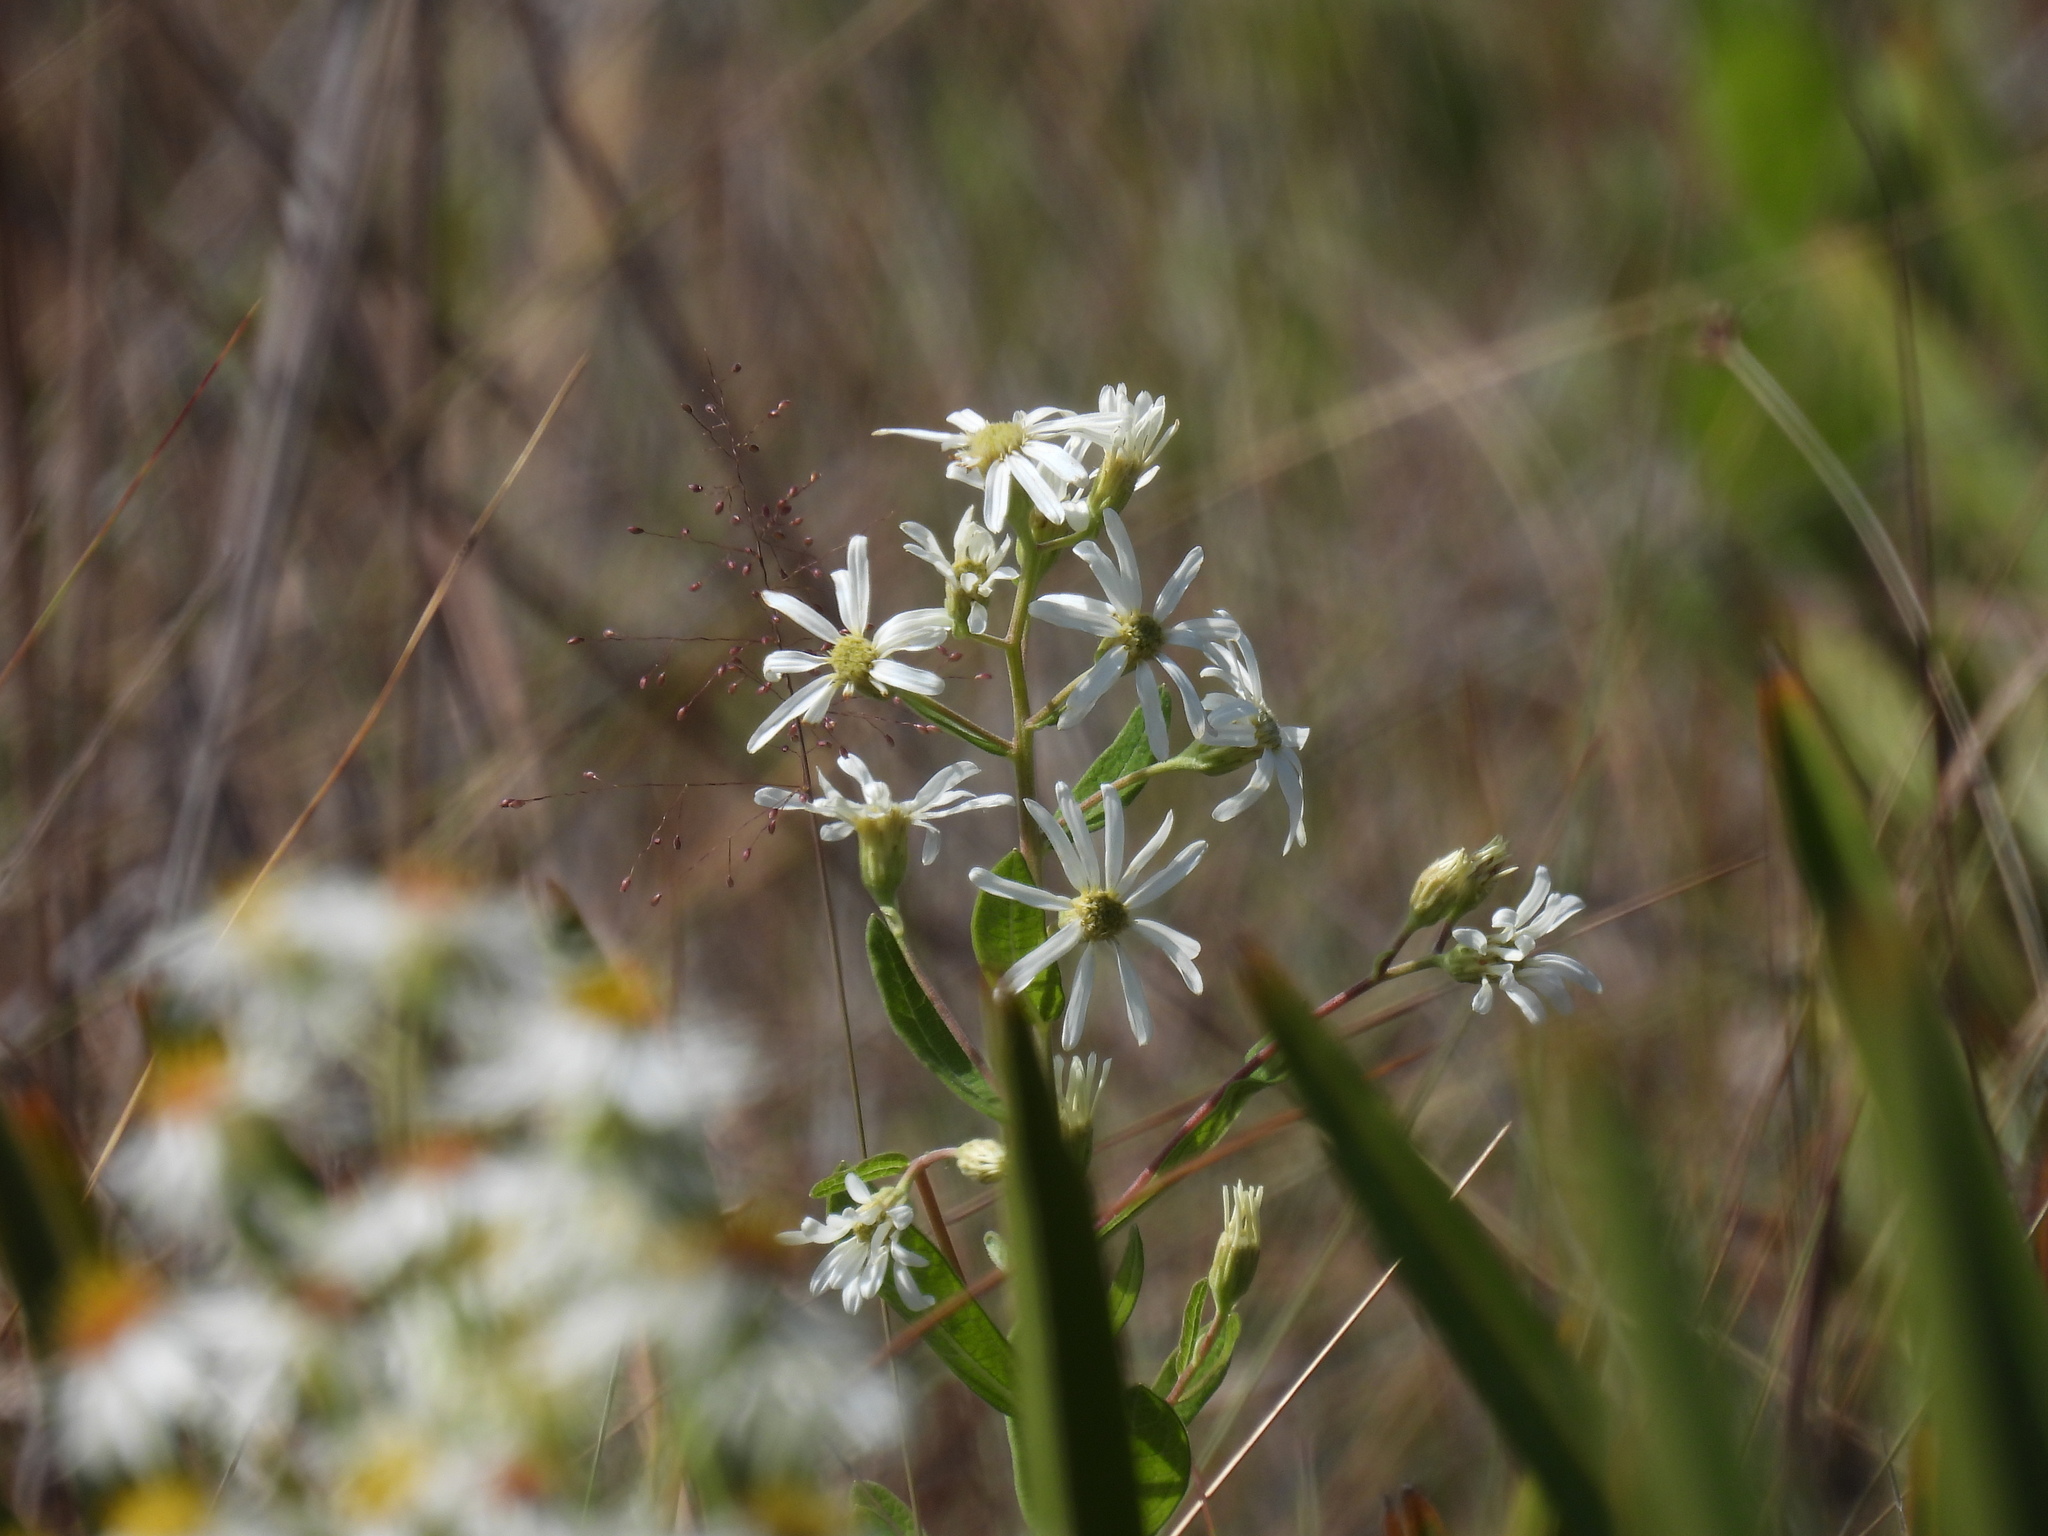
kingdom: Plantae
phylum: Tracheophyta
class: Magnoliopsida
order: Asterales
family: Asteraceae
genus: Oclemena
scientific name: Oclemena reticulata
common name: Pinebarren aster
